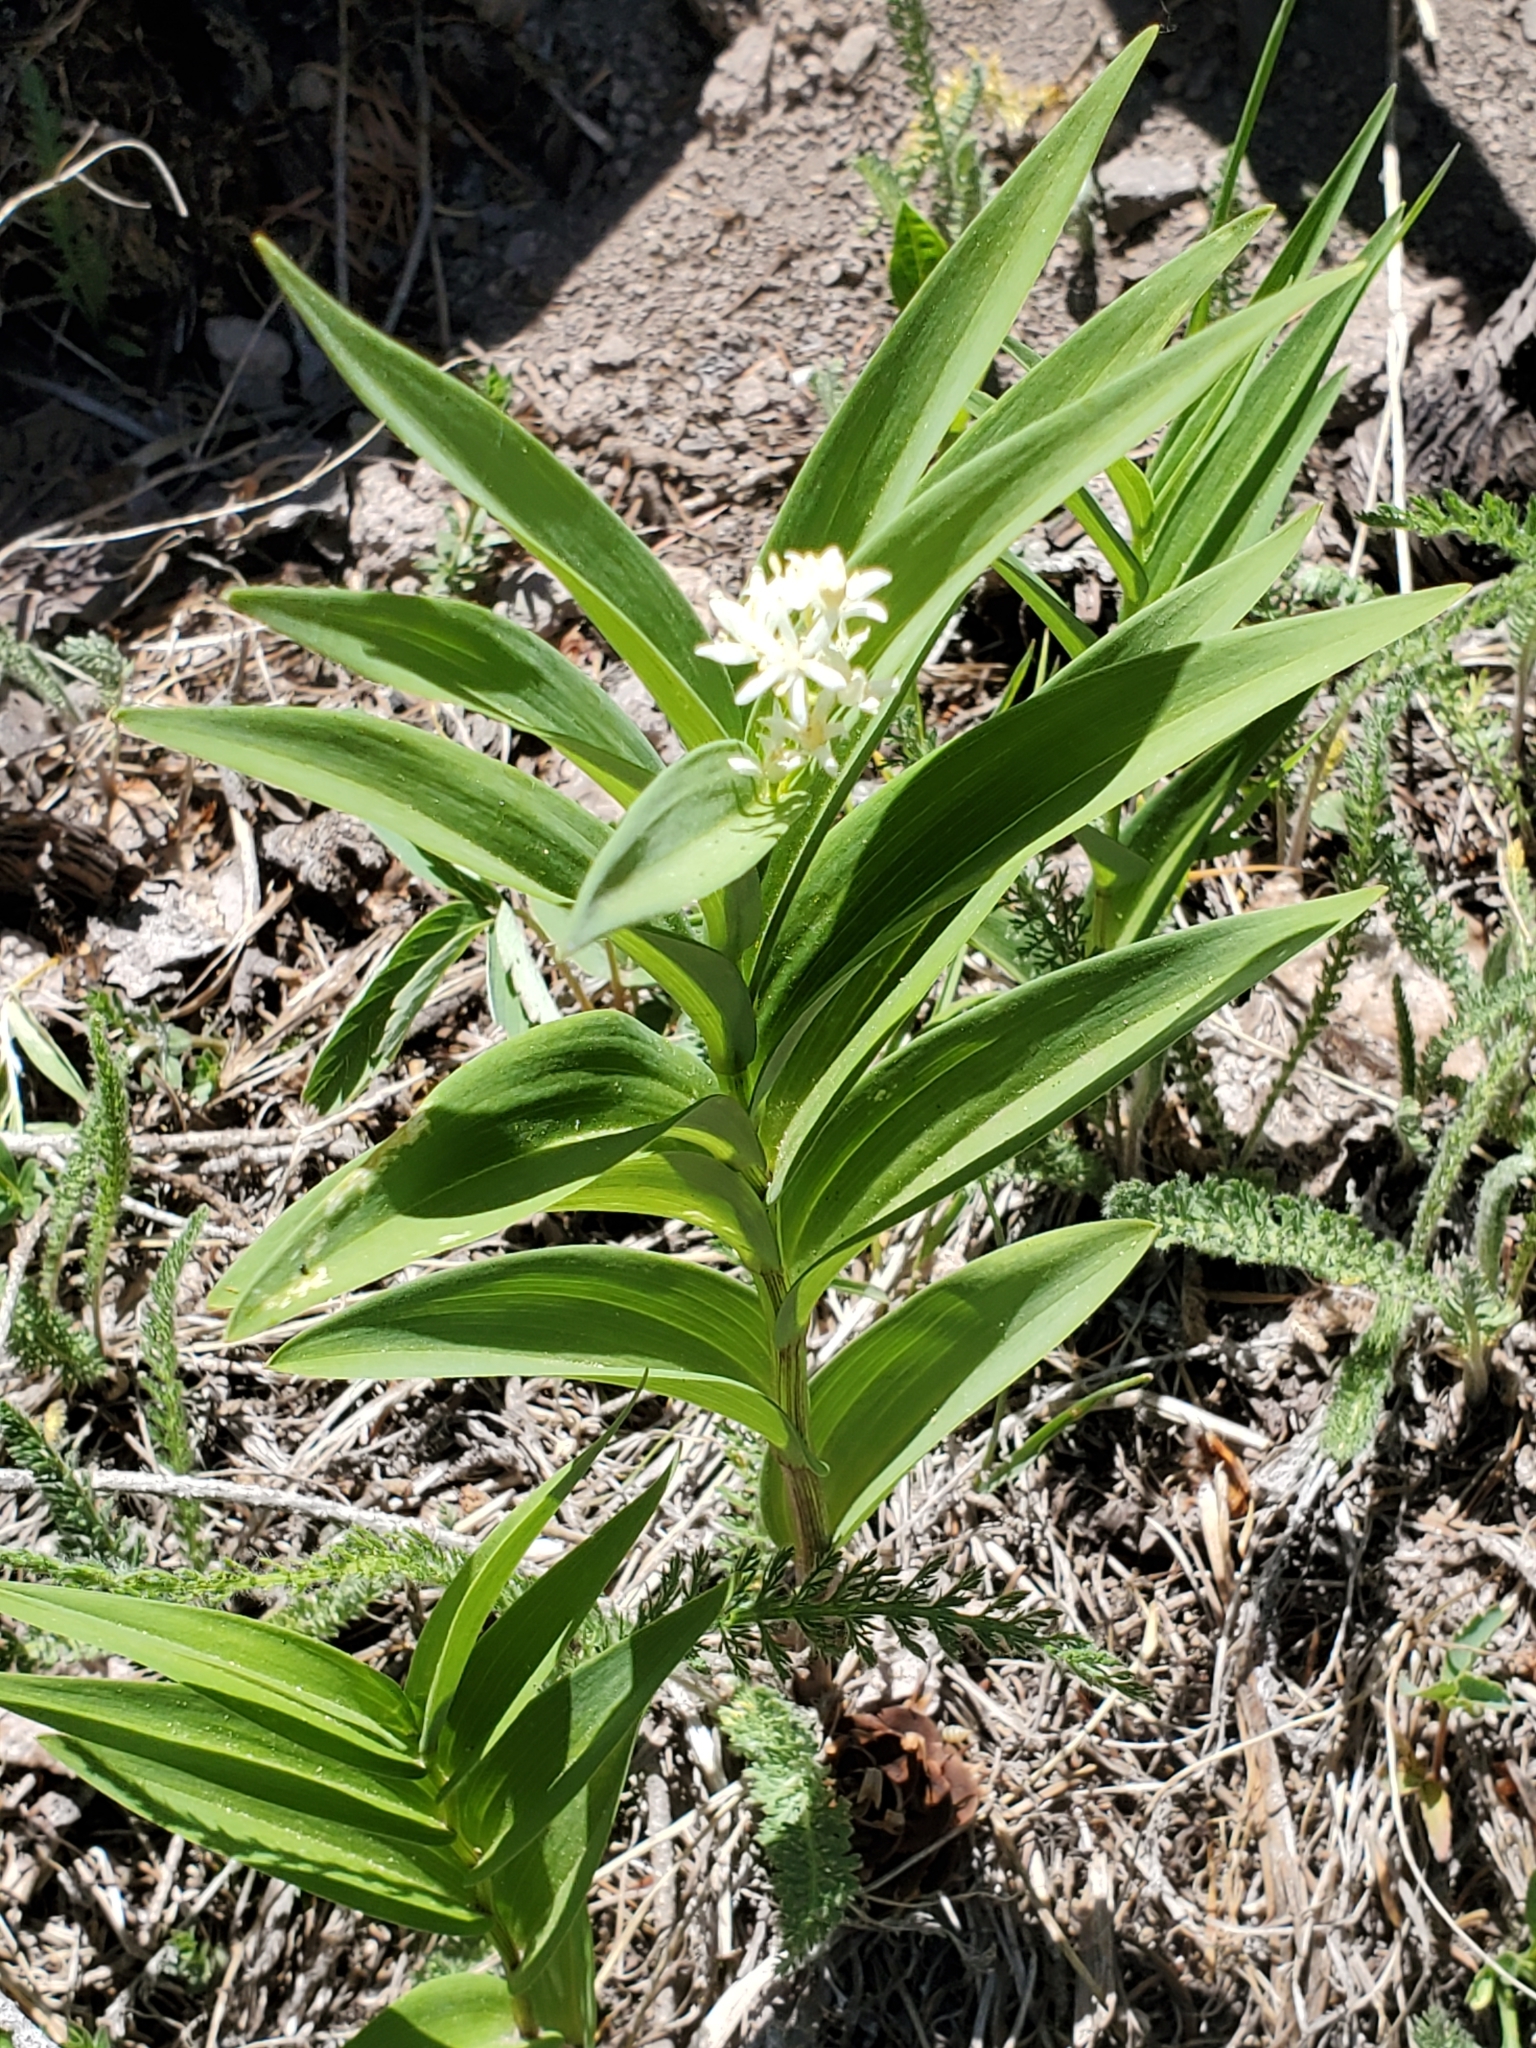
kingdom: Plantae
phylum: Tracheophyta
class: Liliopsida
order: Asparagales
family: Asparagaceae
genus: Maianthemum
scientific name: Maianthemum stellatum
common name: Little false solomon's seal
